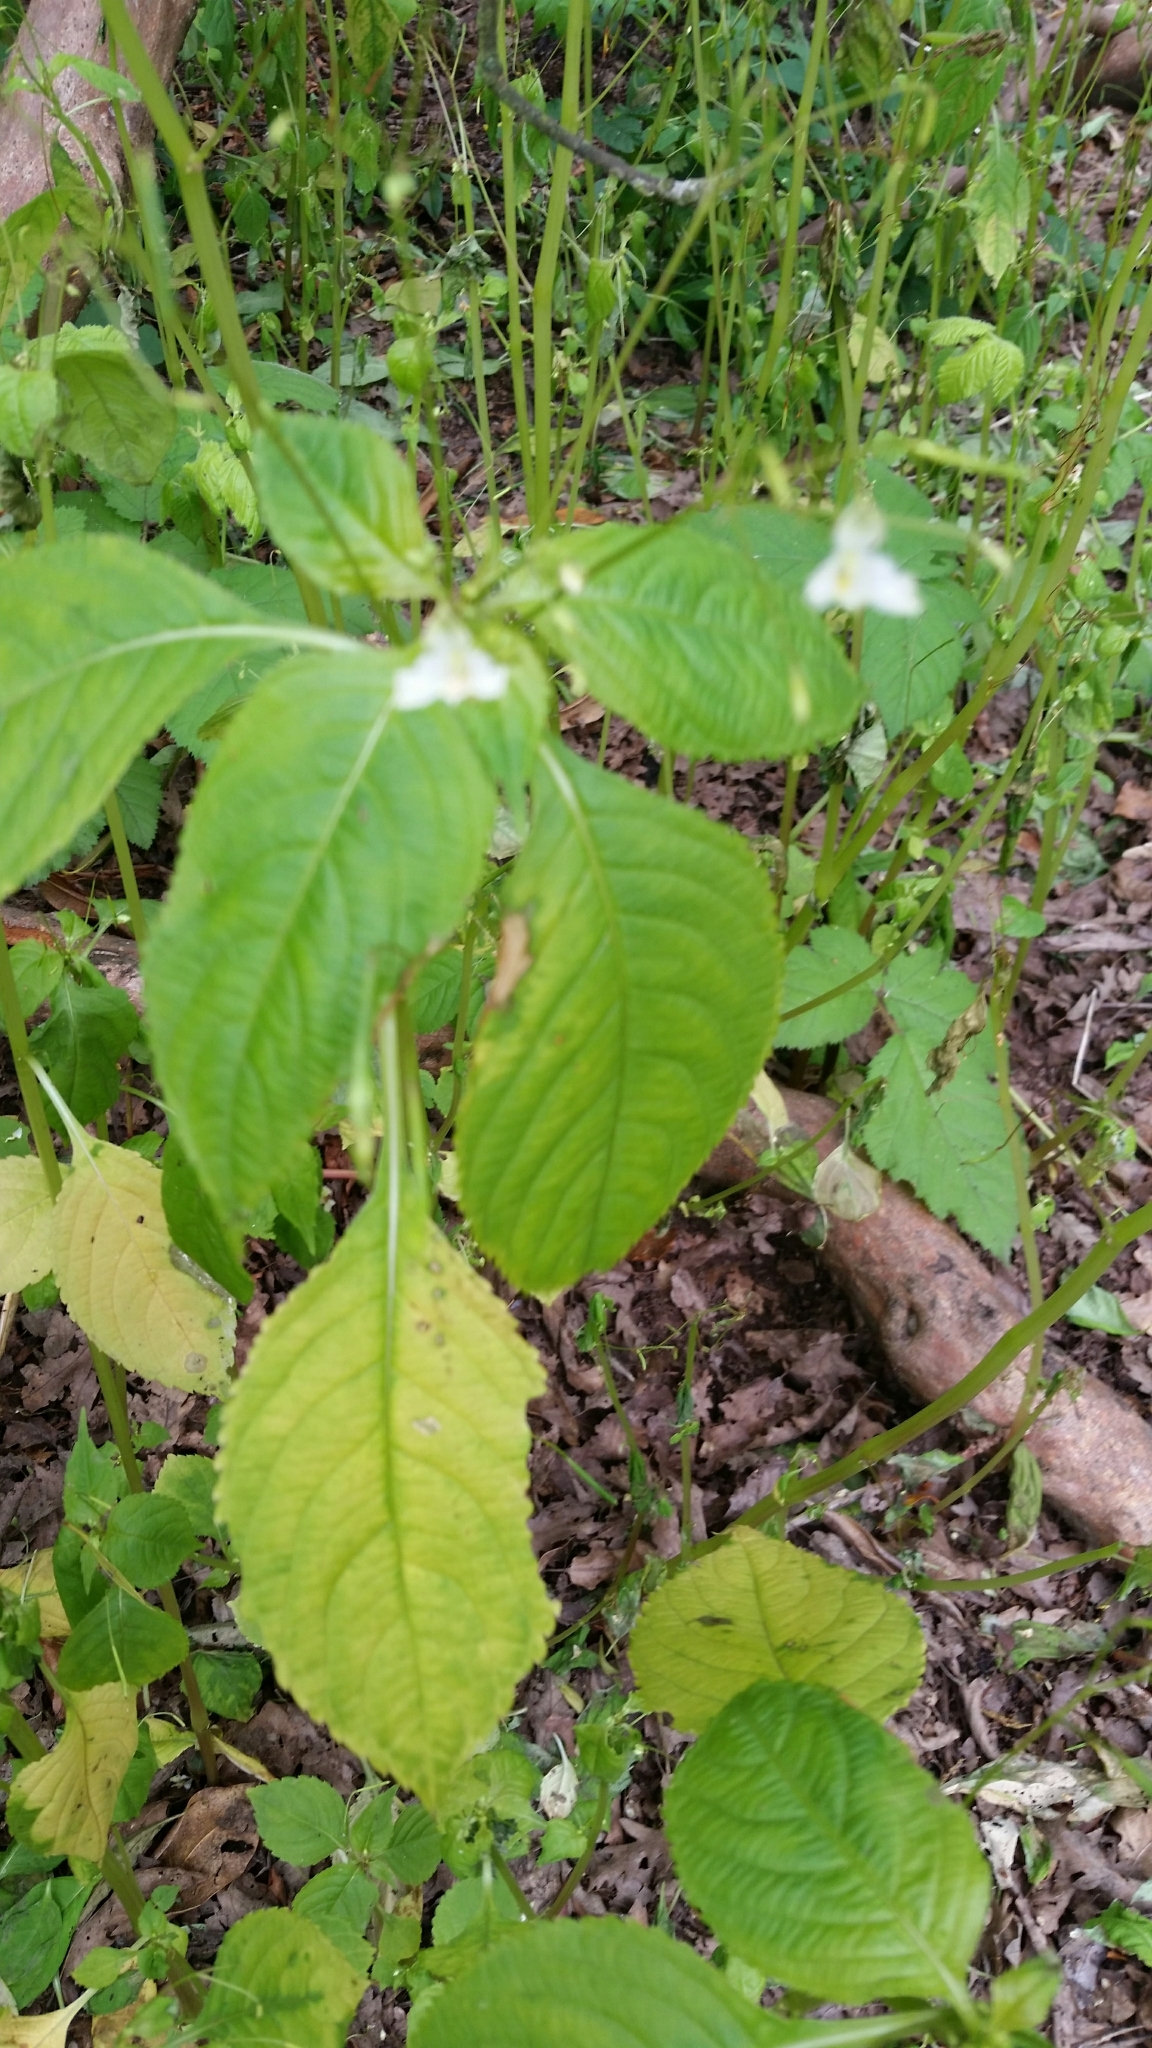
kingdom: Plantae
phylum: Tracheophyta
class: Magnoliopsida
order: Ericales
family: Balsaminaceae
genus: Impatiens
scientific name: Impatiens parviflora
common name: Small balsam
